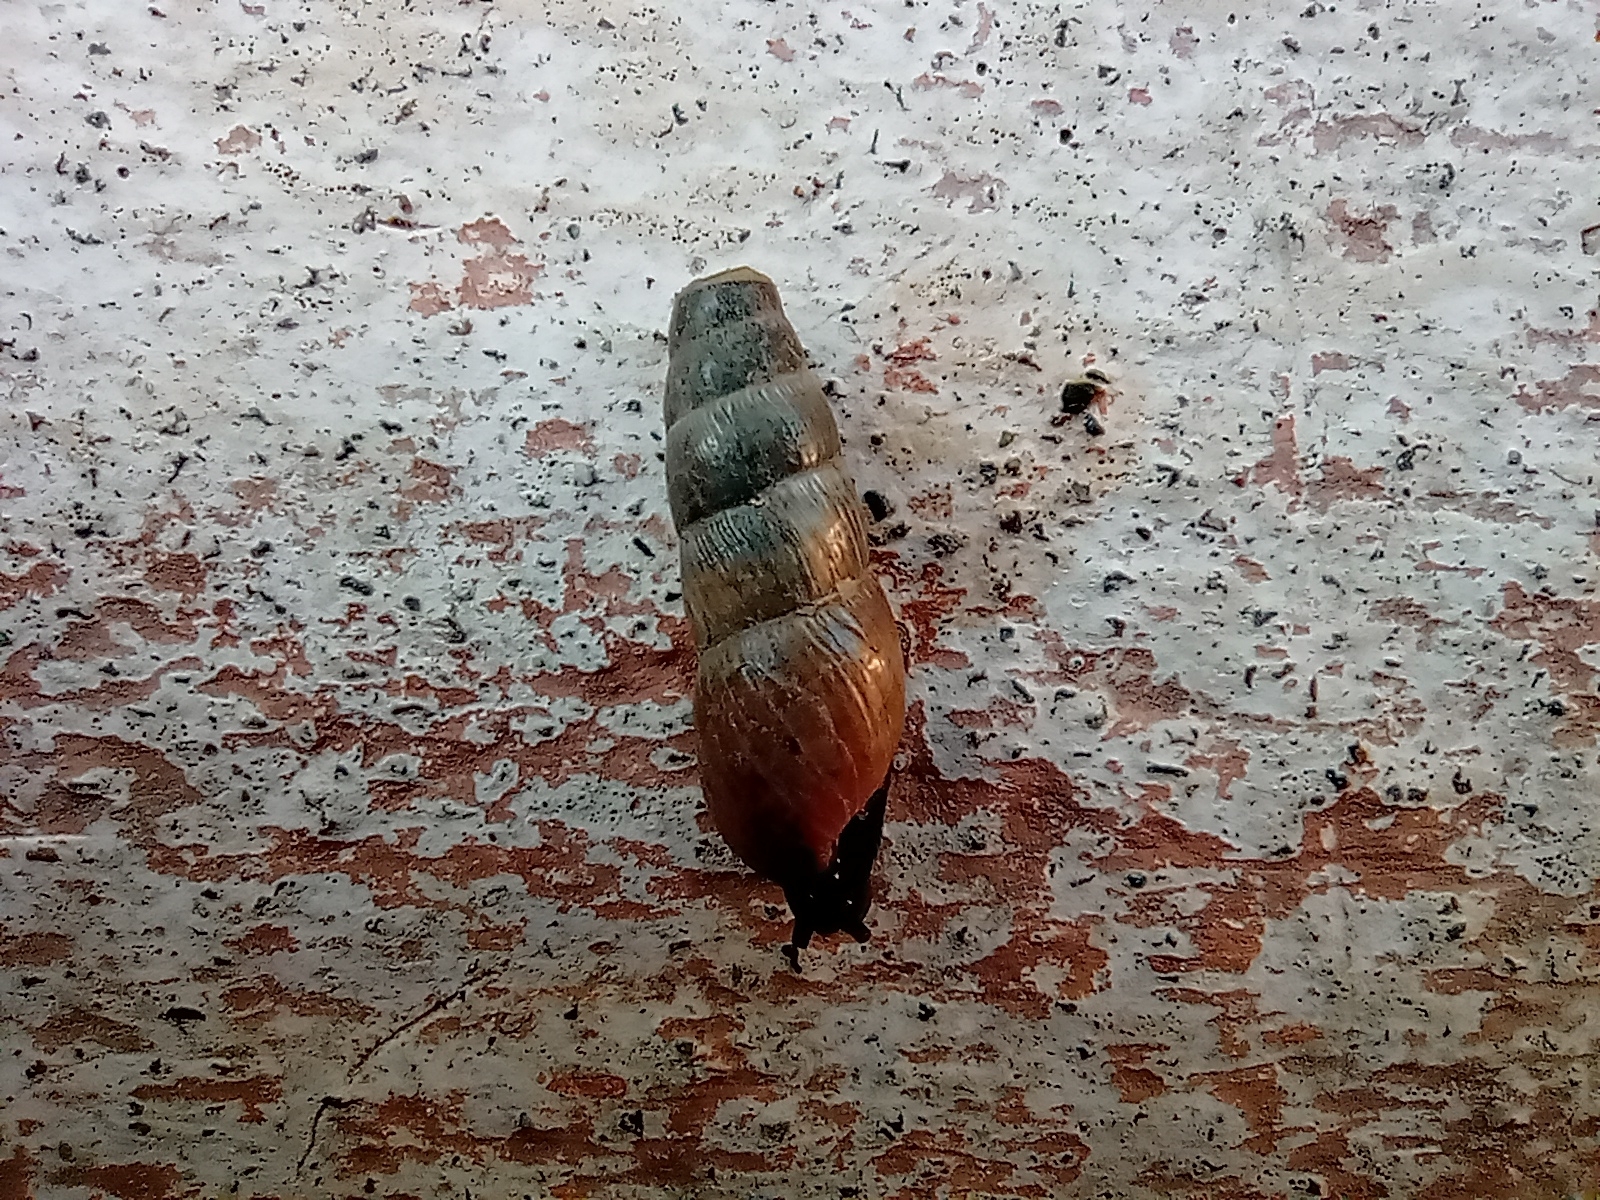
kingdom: Animalia
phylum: Mollusca
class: Gastropoda
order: Stylommatophora
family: Achatinidae
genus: Rumina
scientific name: Rumina decollata
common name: Decollate snail
